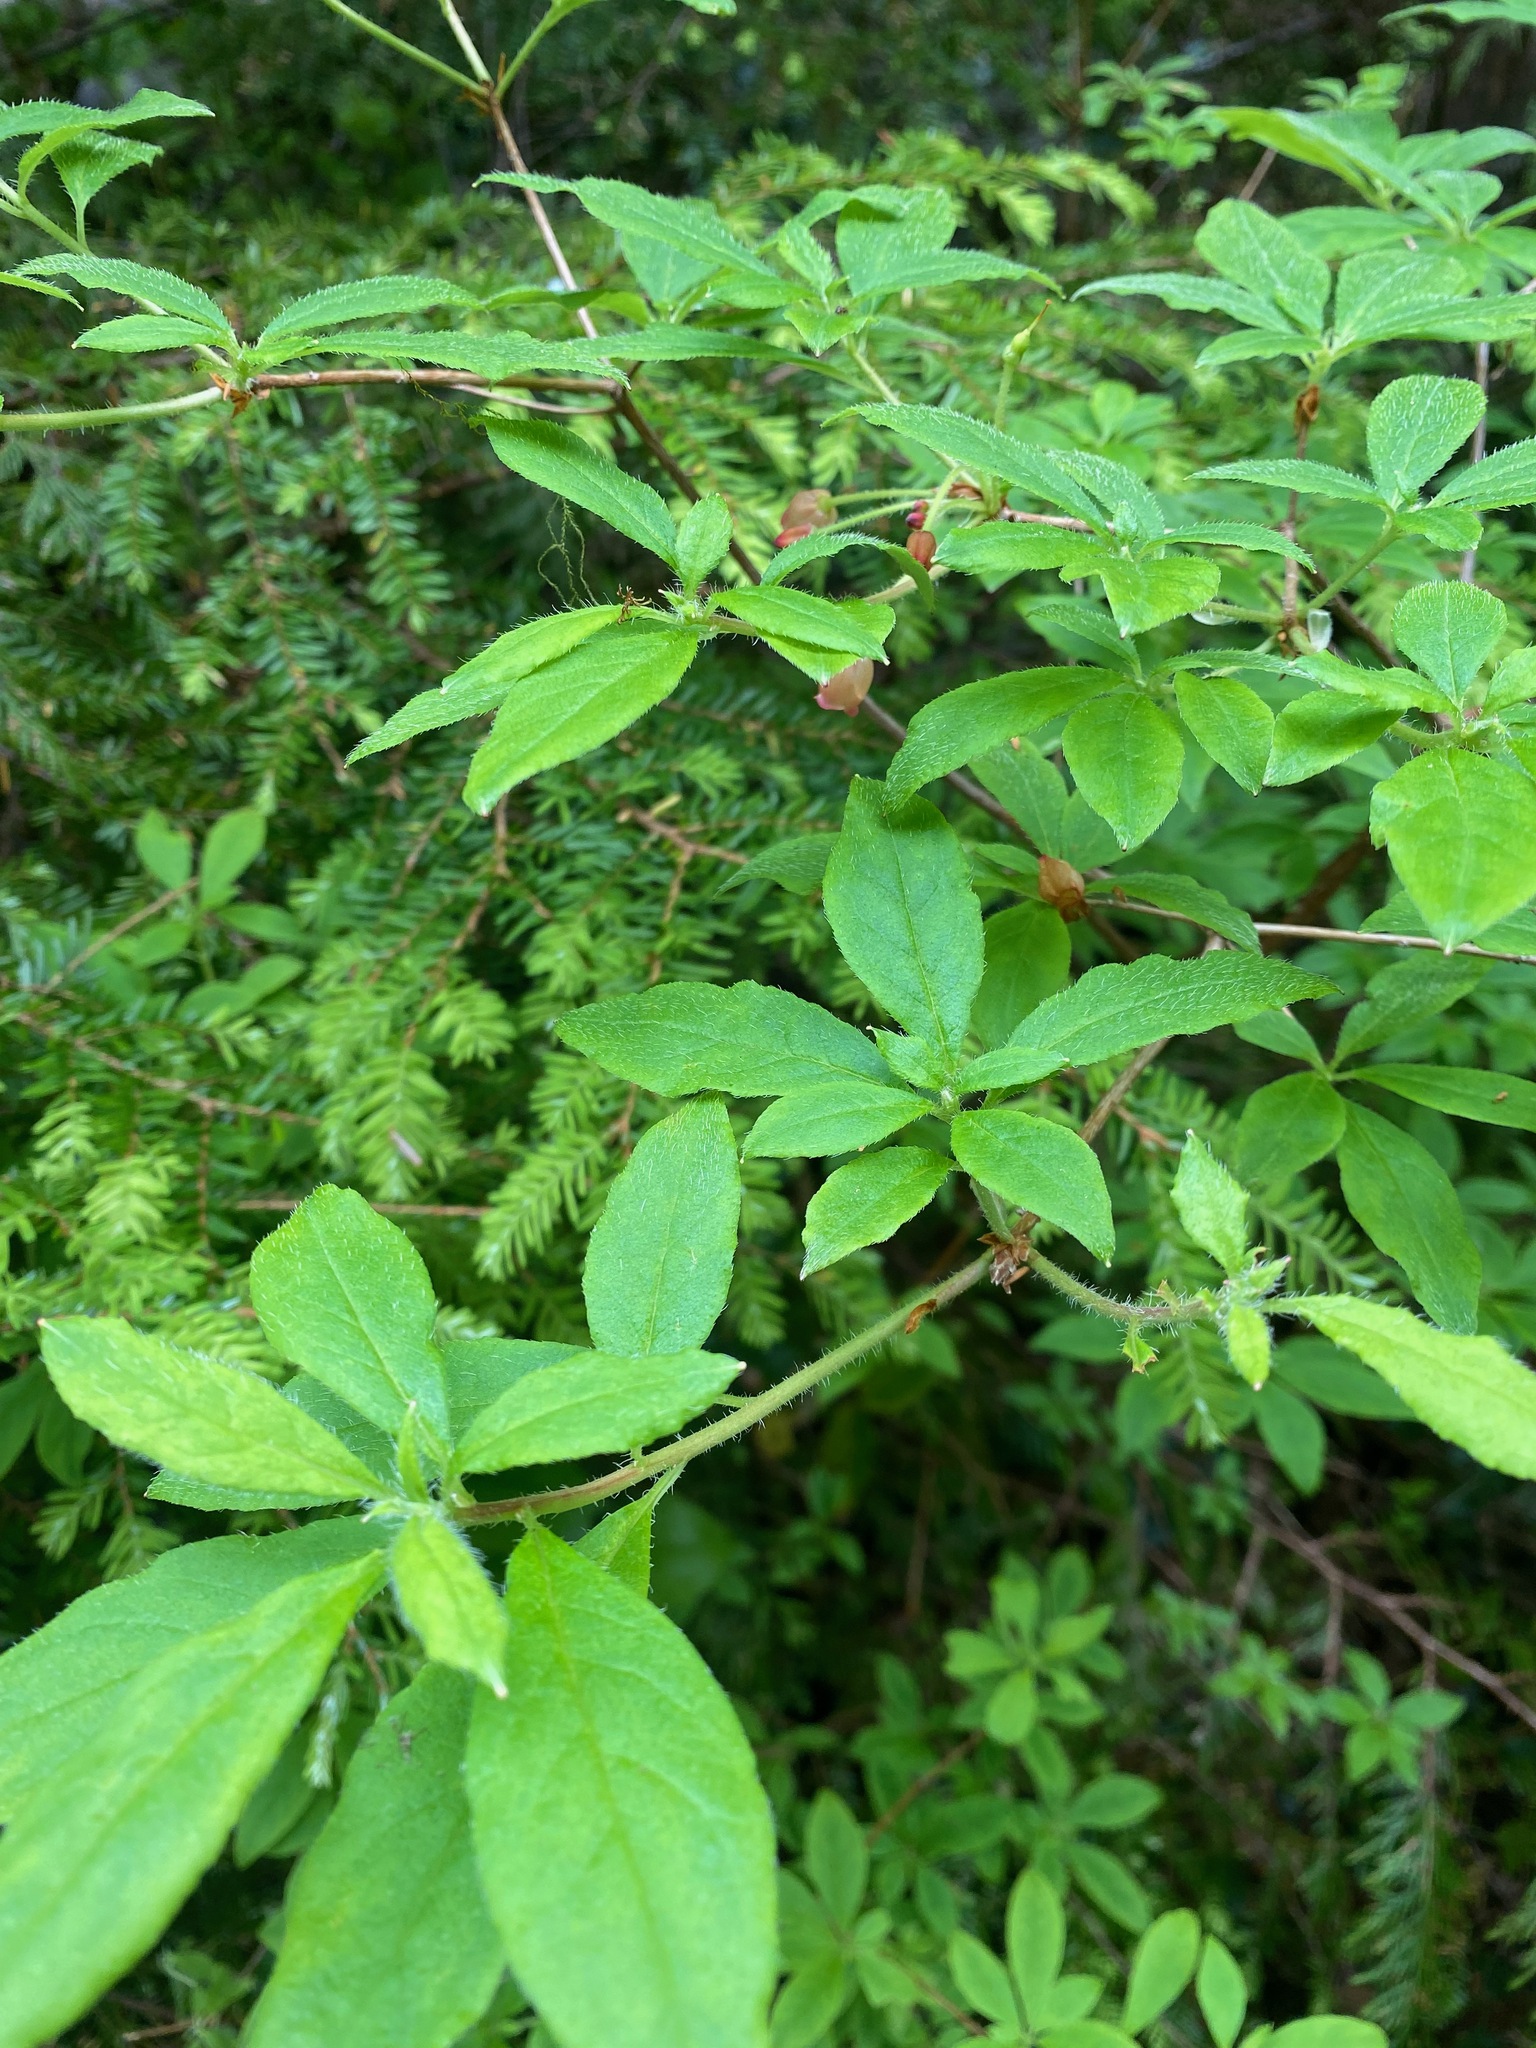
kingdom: Plantae
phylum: Tracheophyta
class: Magnoliopsida
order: Ericales
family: Ericaceae
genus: Rhododendron
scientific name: Rhododendron menziesii
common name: Pacific menziesia
